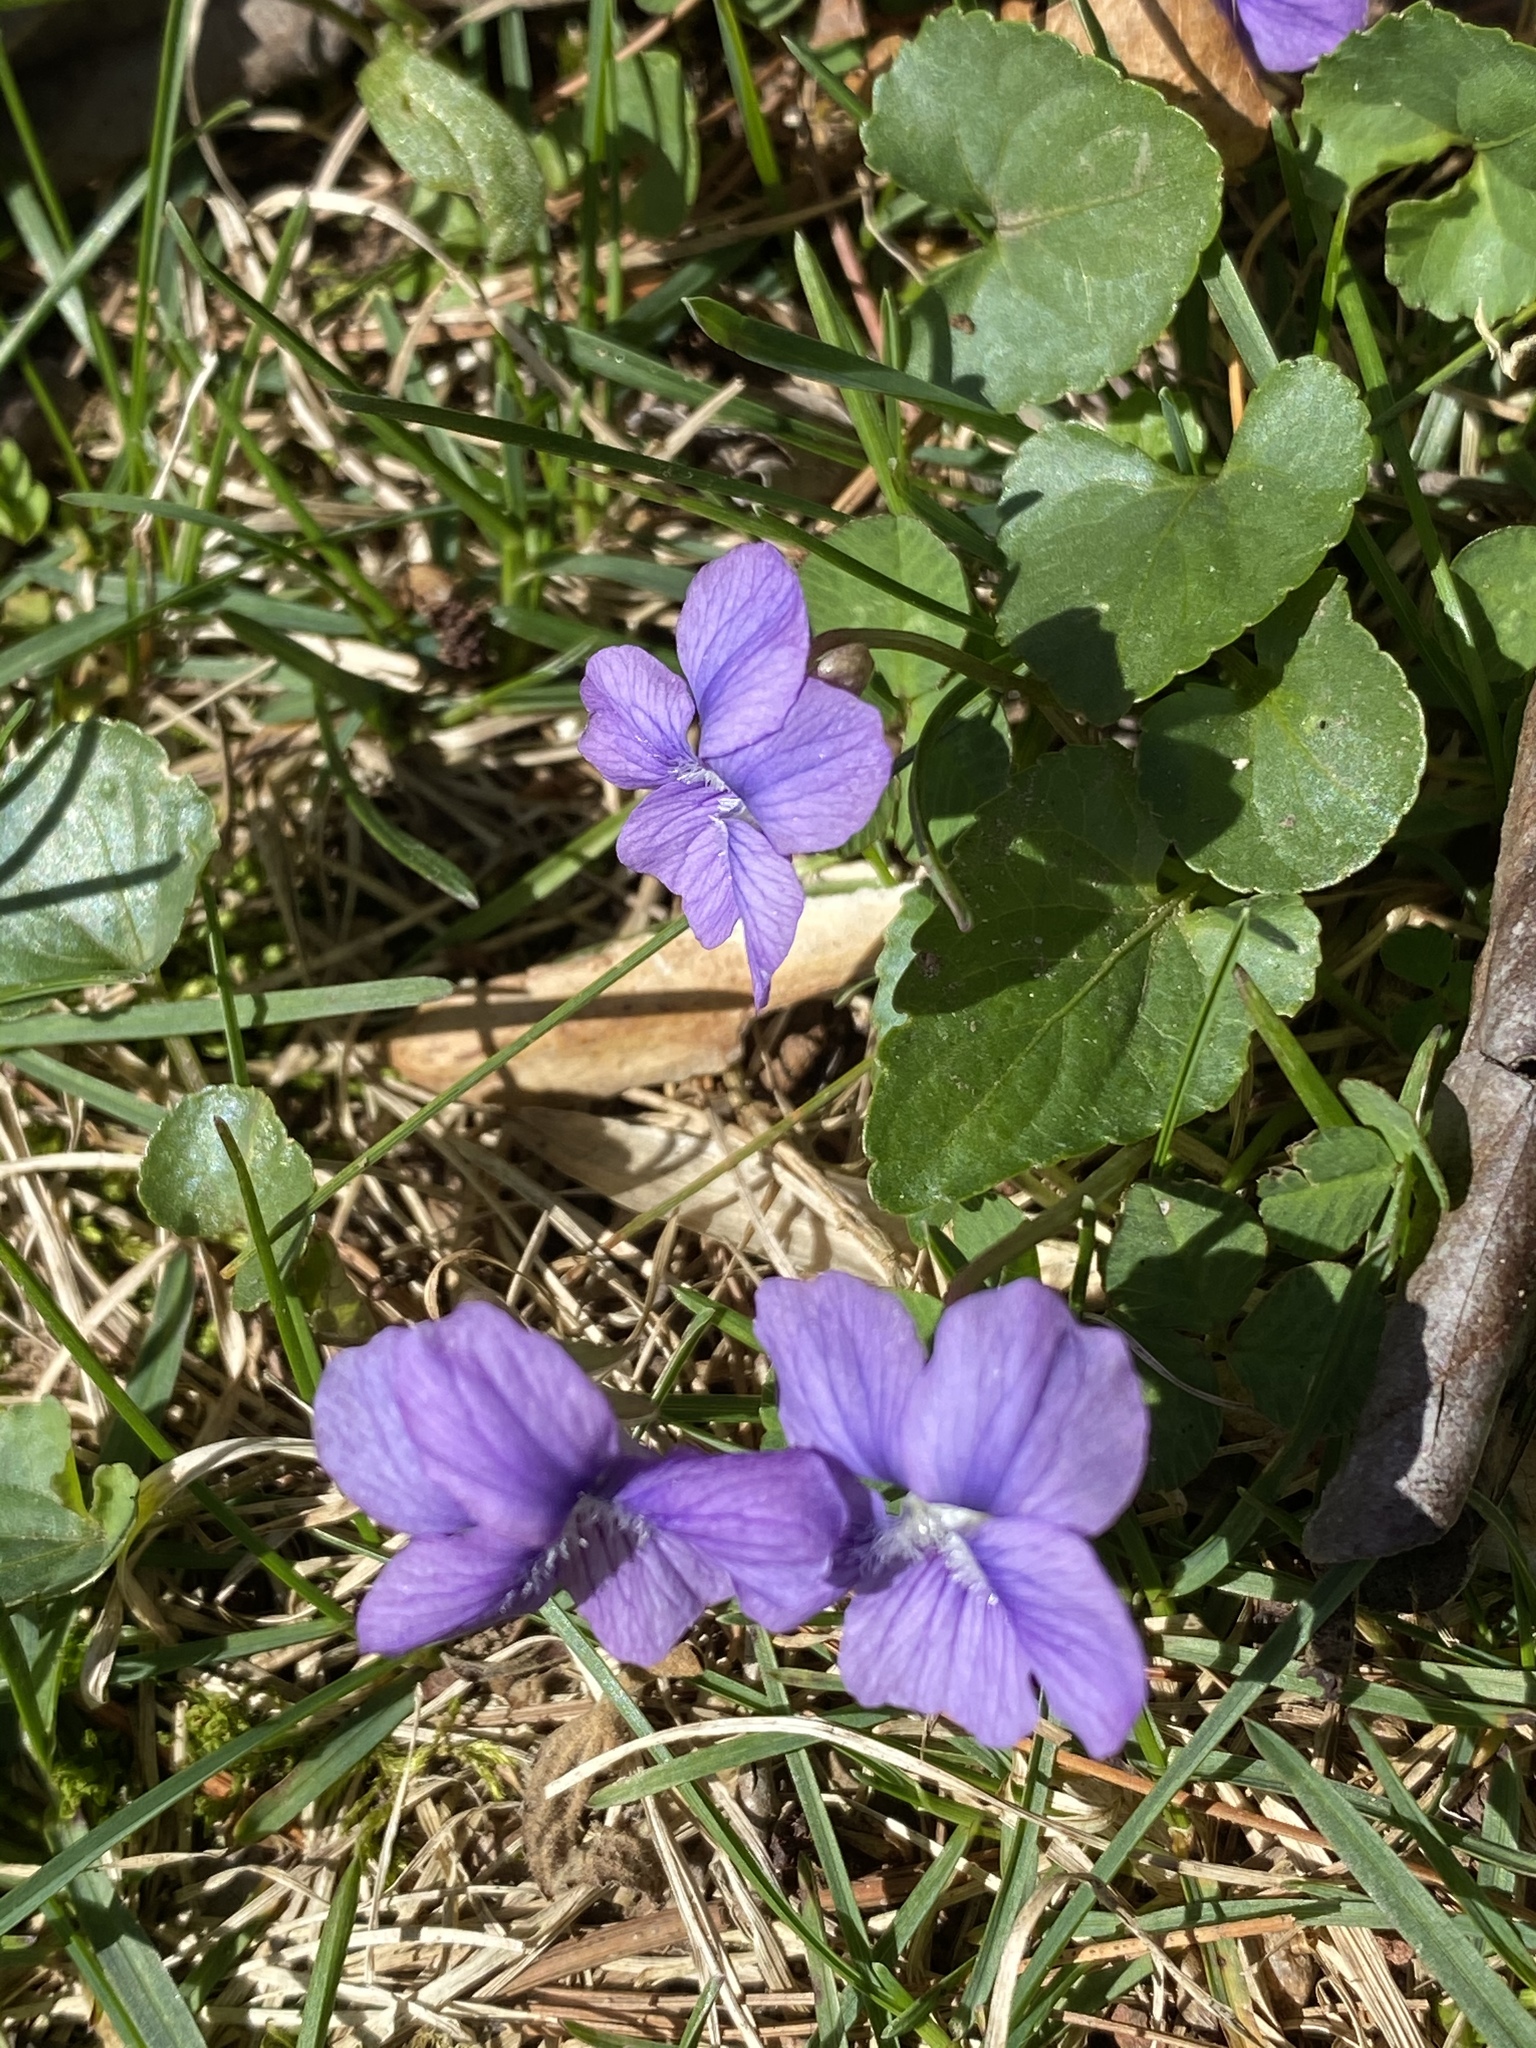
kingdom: Plantae
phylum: Tracheophyta
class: Magnoliopsida
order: Malpighiales
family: Violaceae
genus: Viola
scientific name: Viola sororia
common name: Dooryard violet
